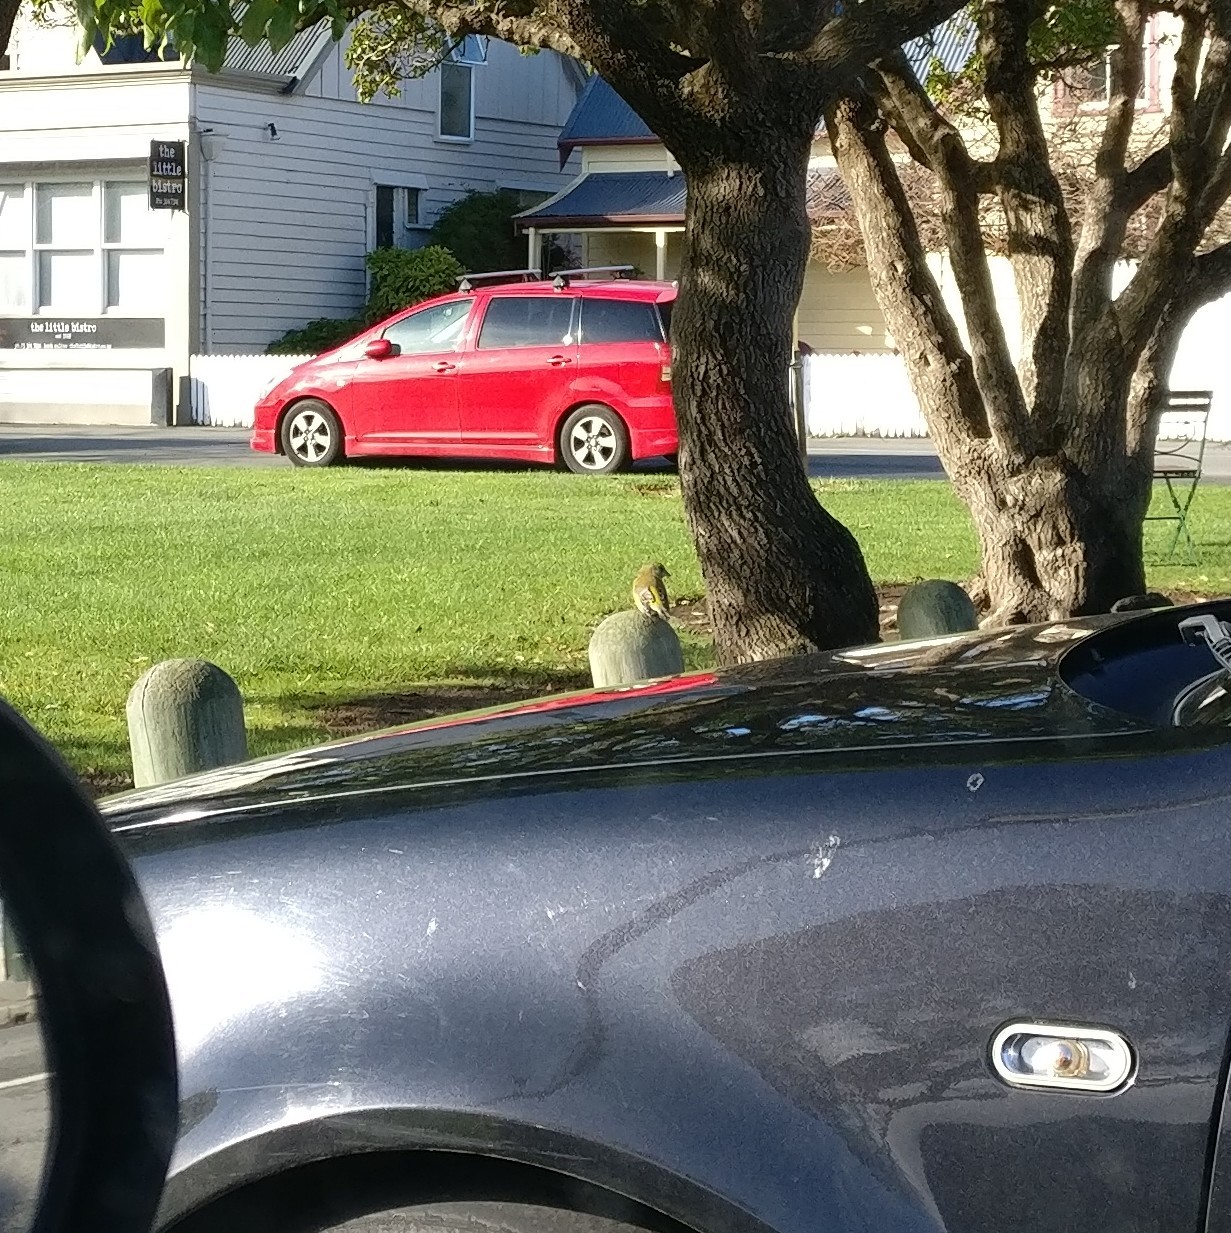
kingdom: Plantae
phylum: Tracheophyta
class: Liliopsida
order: Poales
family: Poaceae
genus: Chloris
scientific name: Chloris chloris
